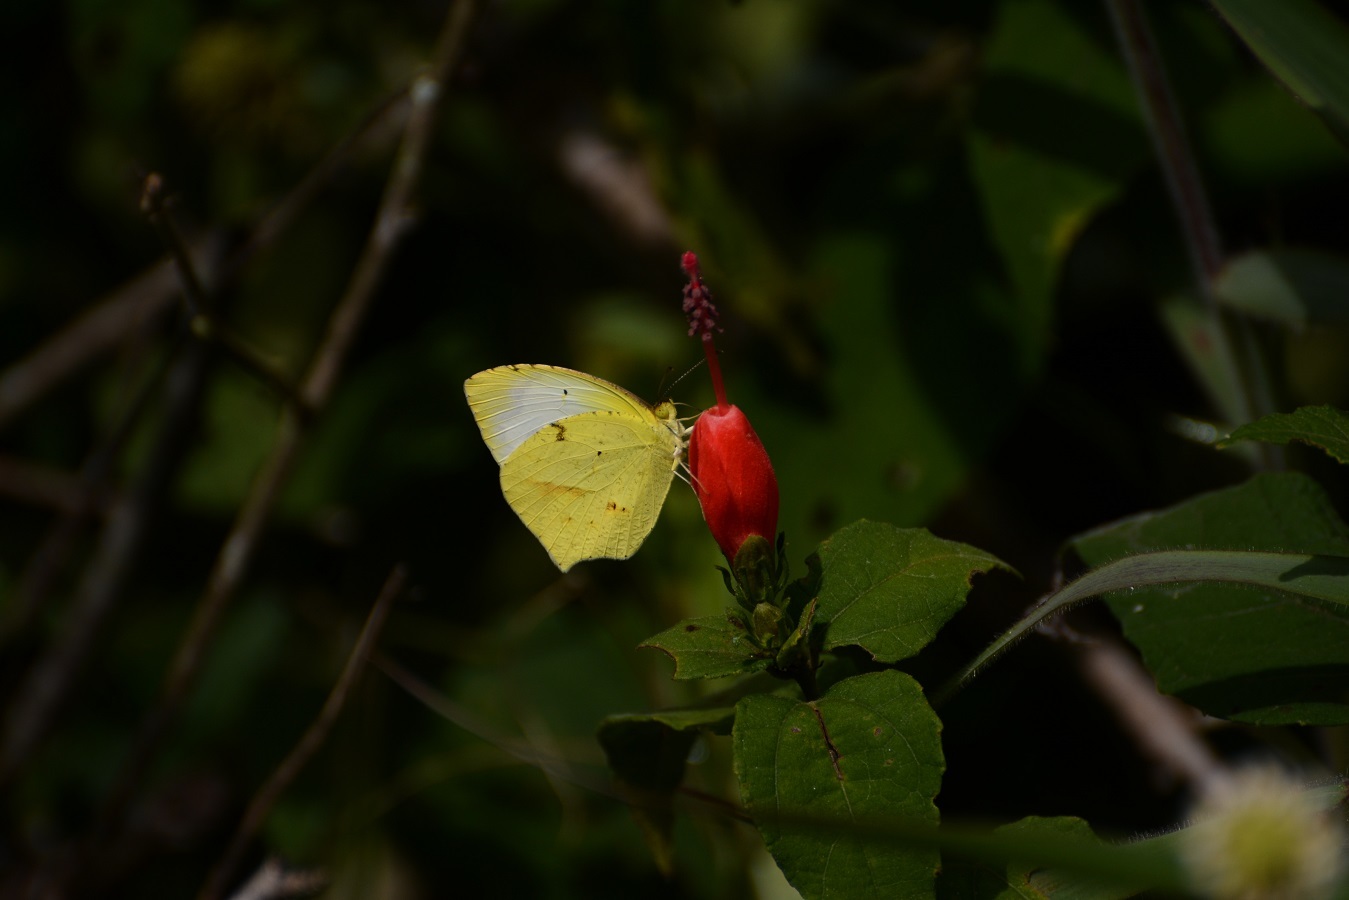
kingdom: Animalia
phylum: Arthropoda
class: Insecta
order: Lepidoptera
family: Pieridae
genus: Abaeis
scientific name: Abaeis mexicana
